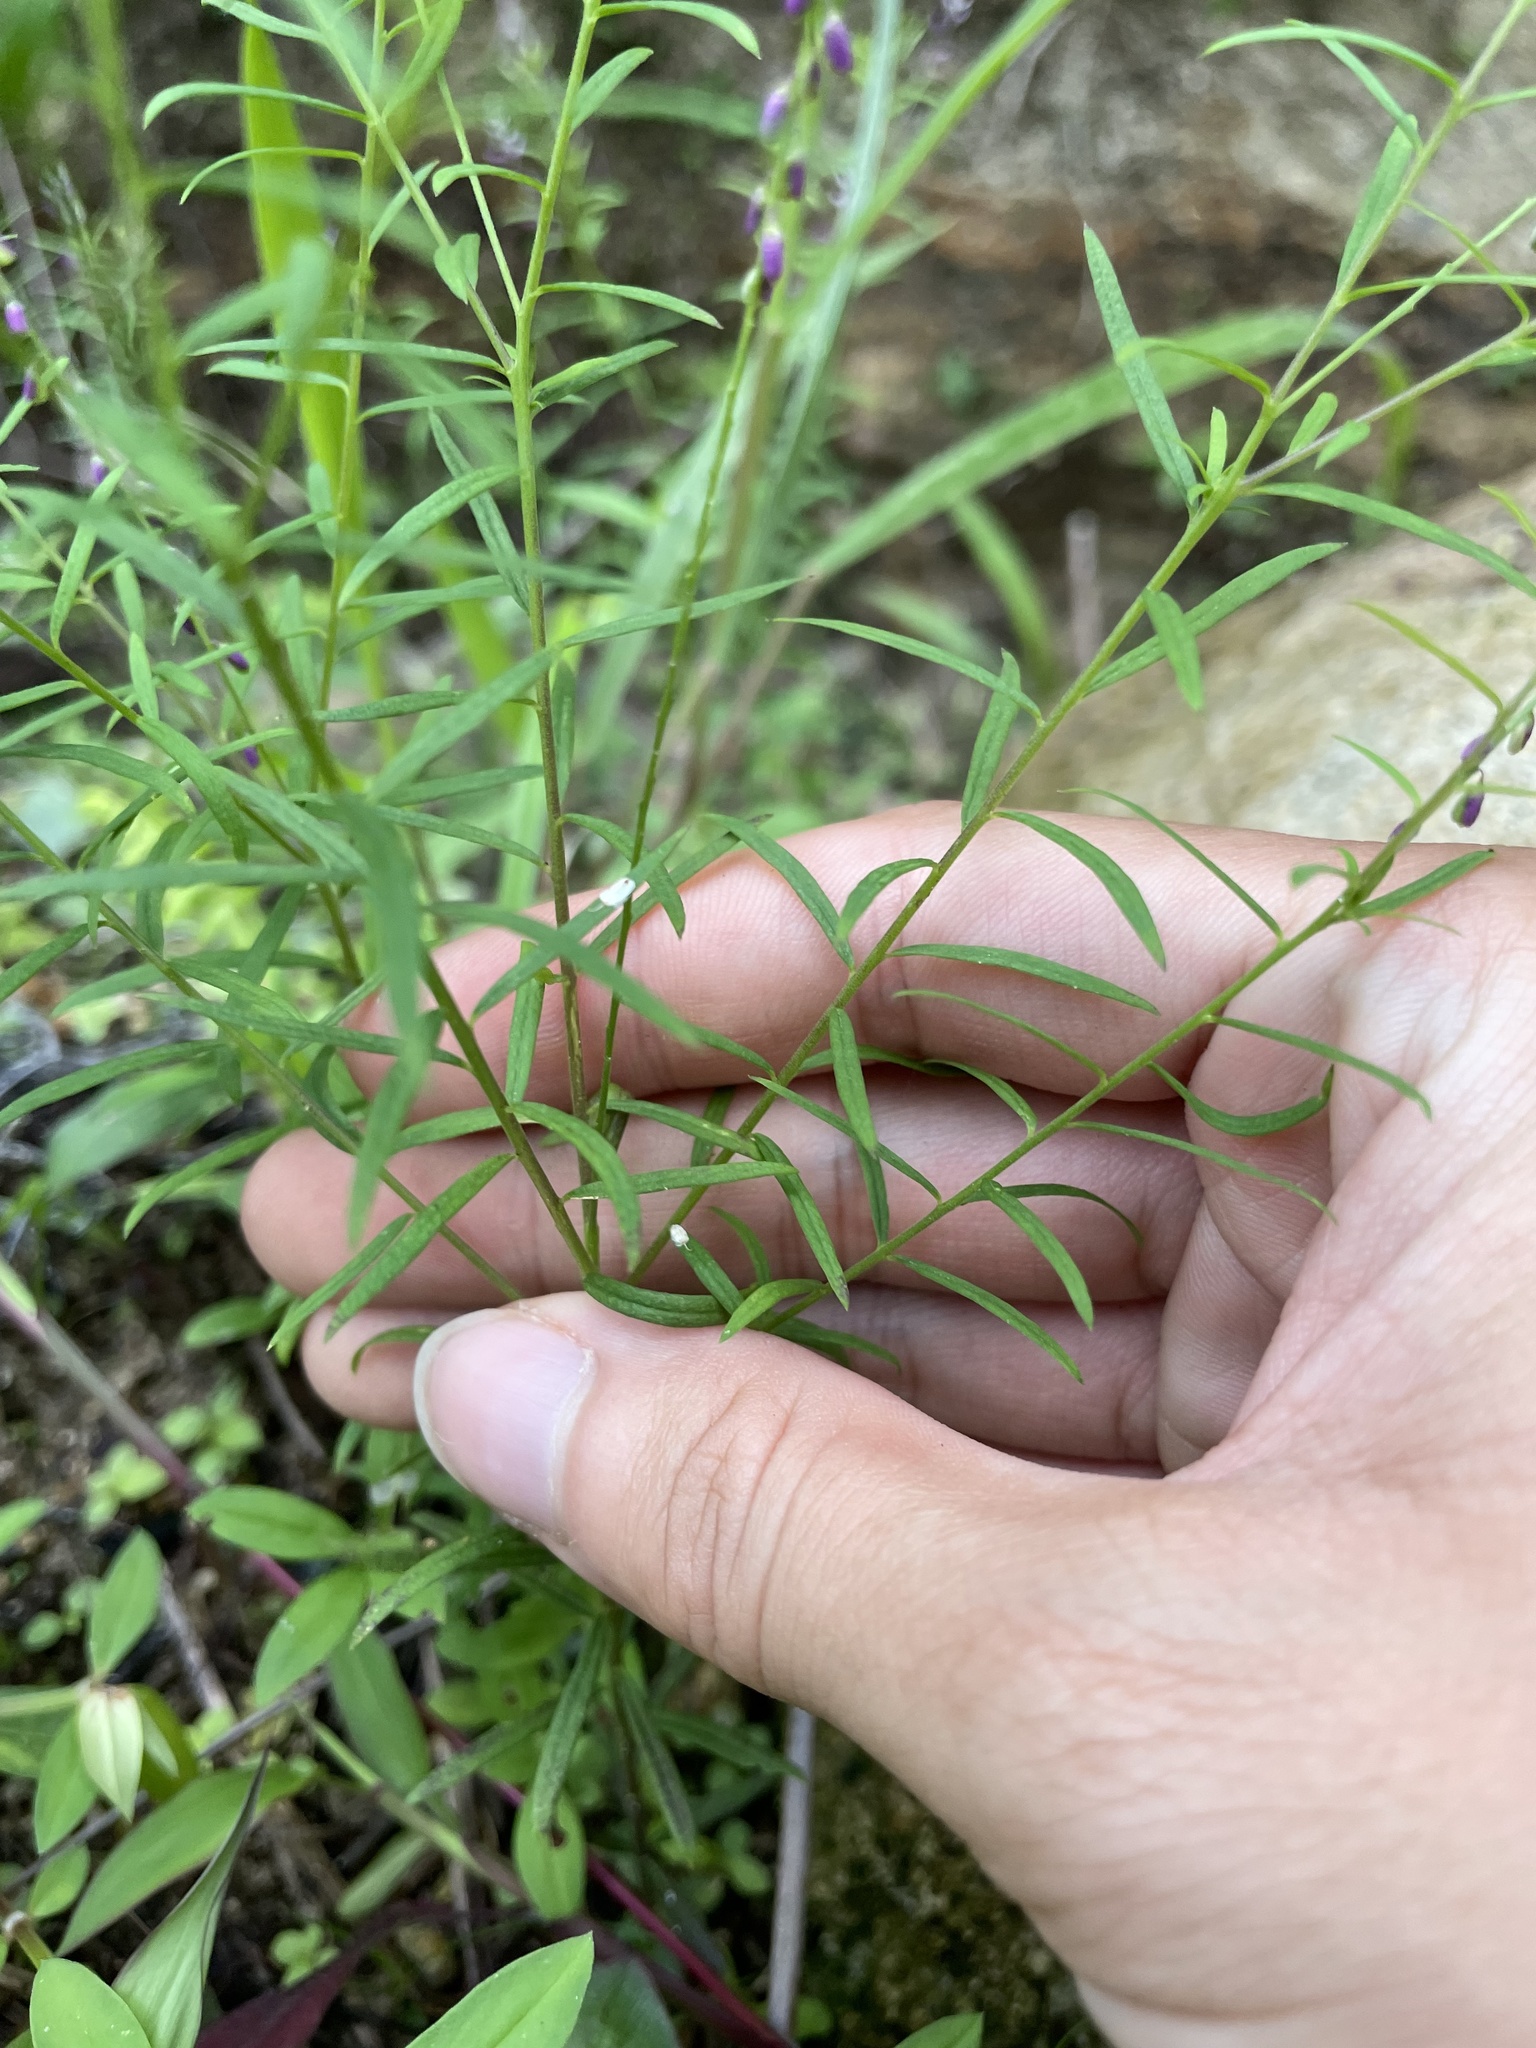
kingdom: Plantae
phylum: Tracheophyta
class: Magnoliopsida
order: Fabales
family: Polygalaceae
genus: Polygala
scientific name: Polygala paniculata
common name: Orosne
